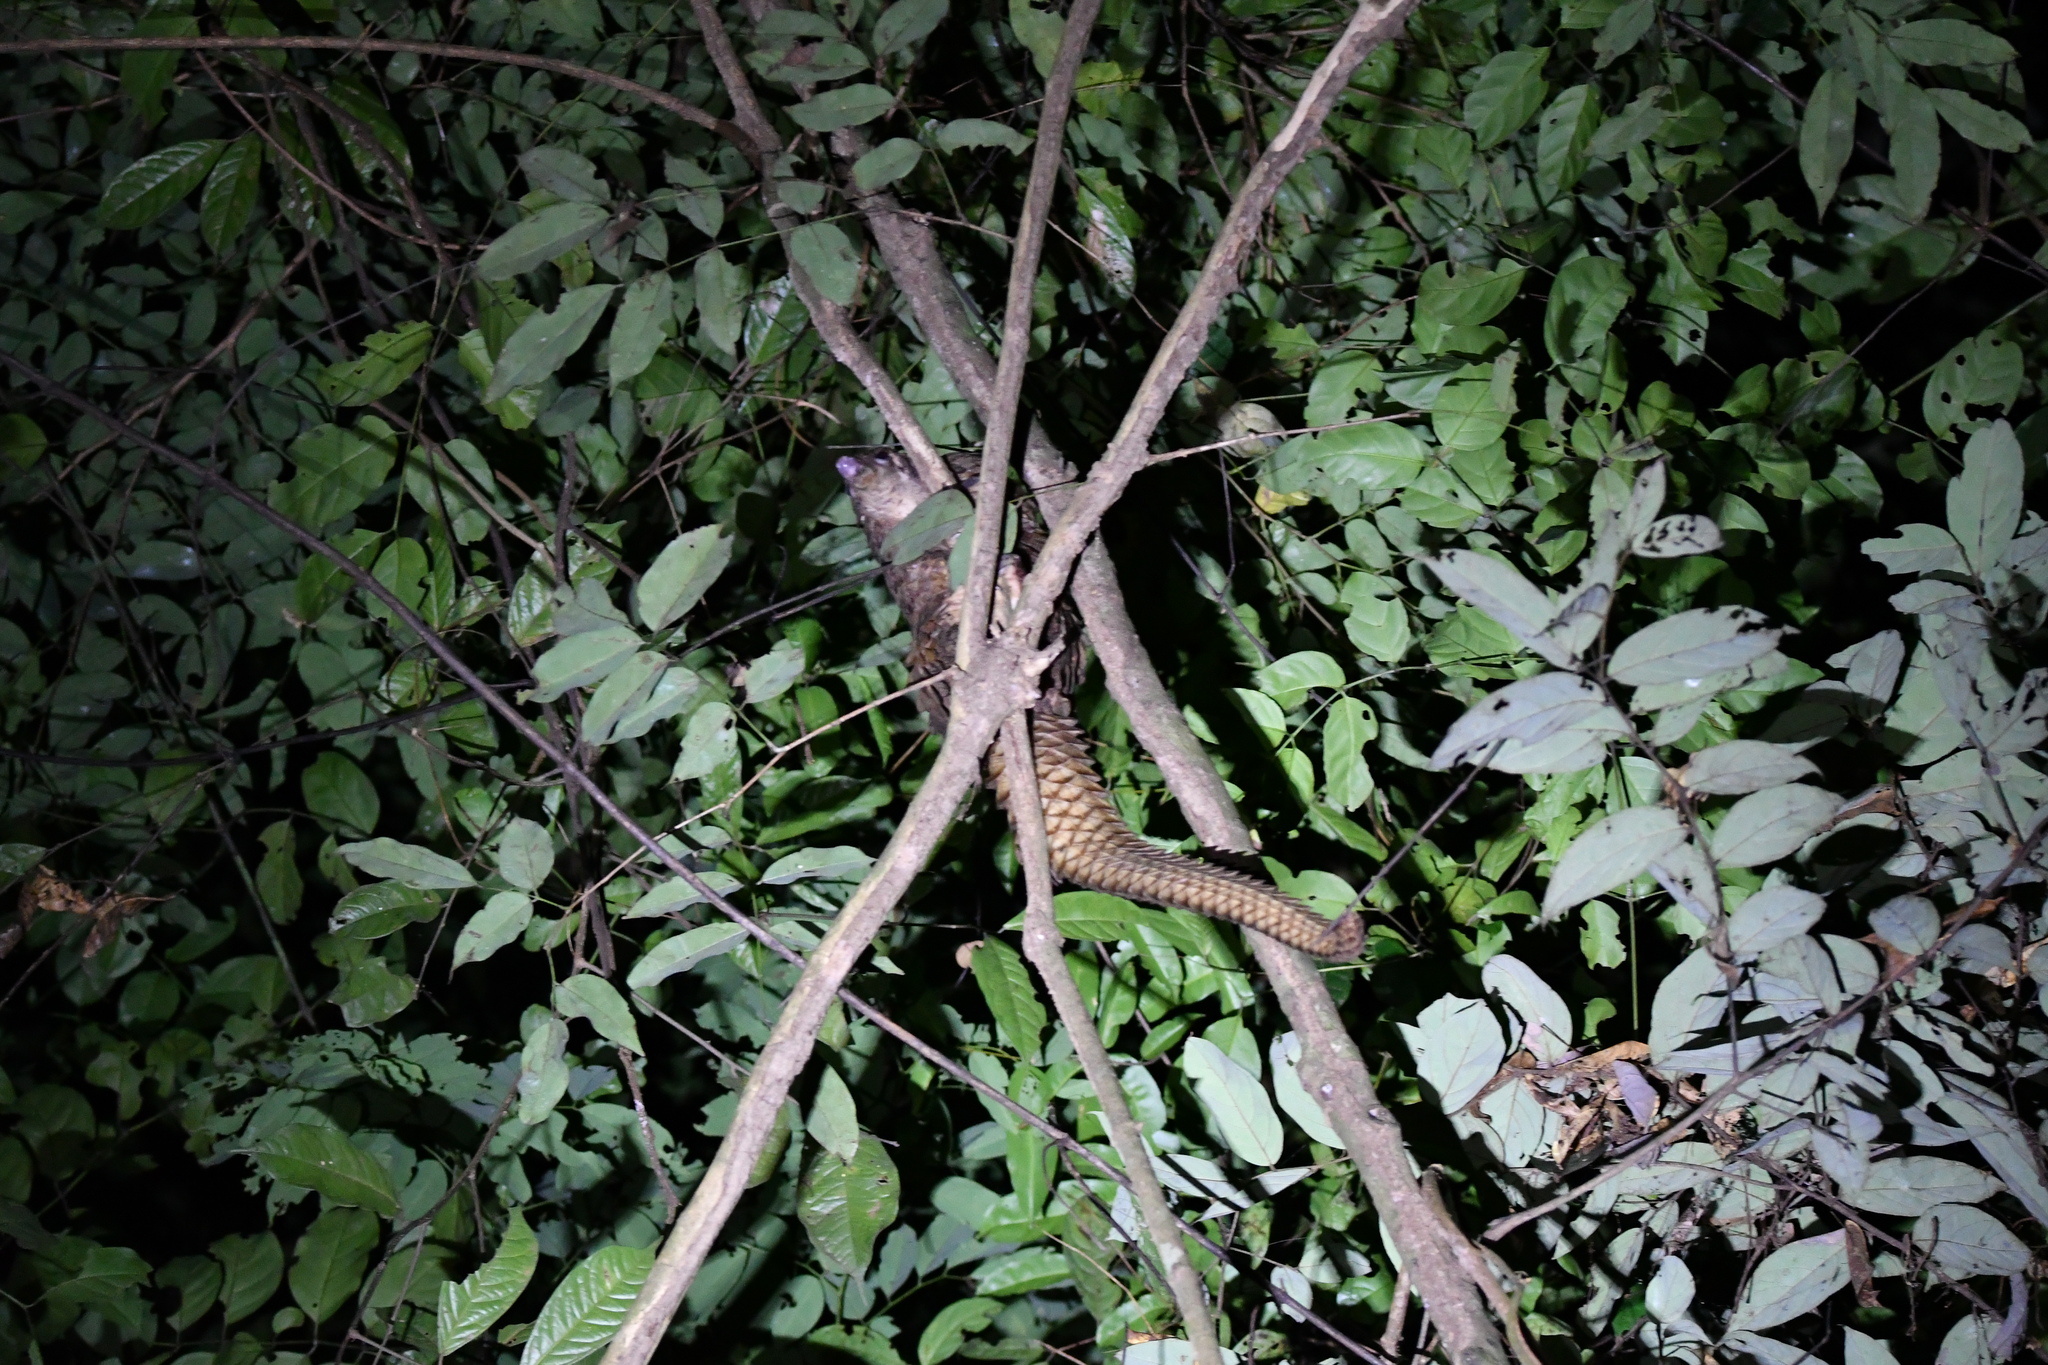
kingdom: Animalia
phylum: Chordata
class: Mammalia
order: Pholidota
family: Manidae
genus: Manis
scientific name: Manis tricuspis
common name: Tree pangolin
